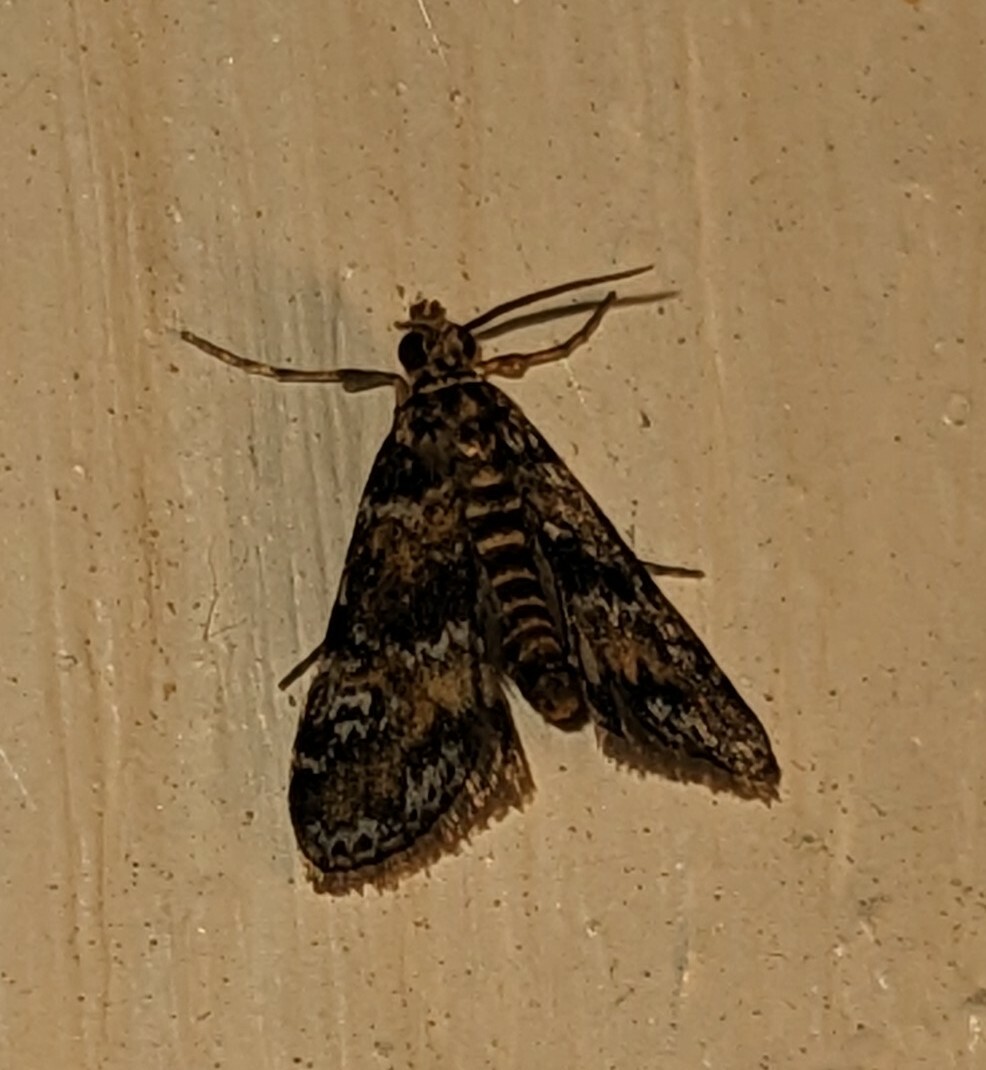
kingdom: Animalia
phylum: Arthropoda
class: Insecta
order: Lepidoptera
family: Crambidae
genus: Elophila
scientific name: Elophila obliteralis
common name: Waterlily leafcutter moth
